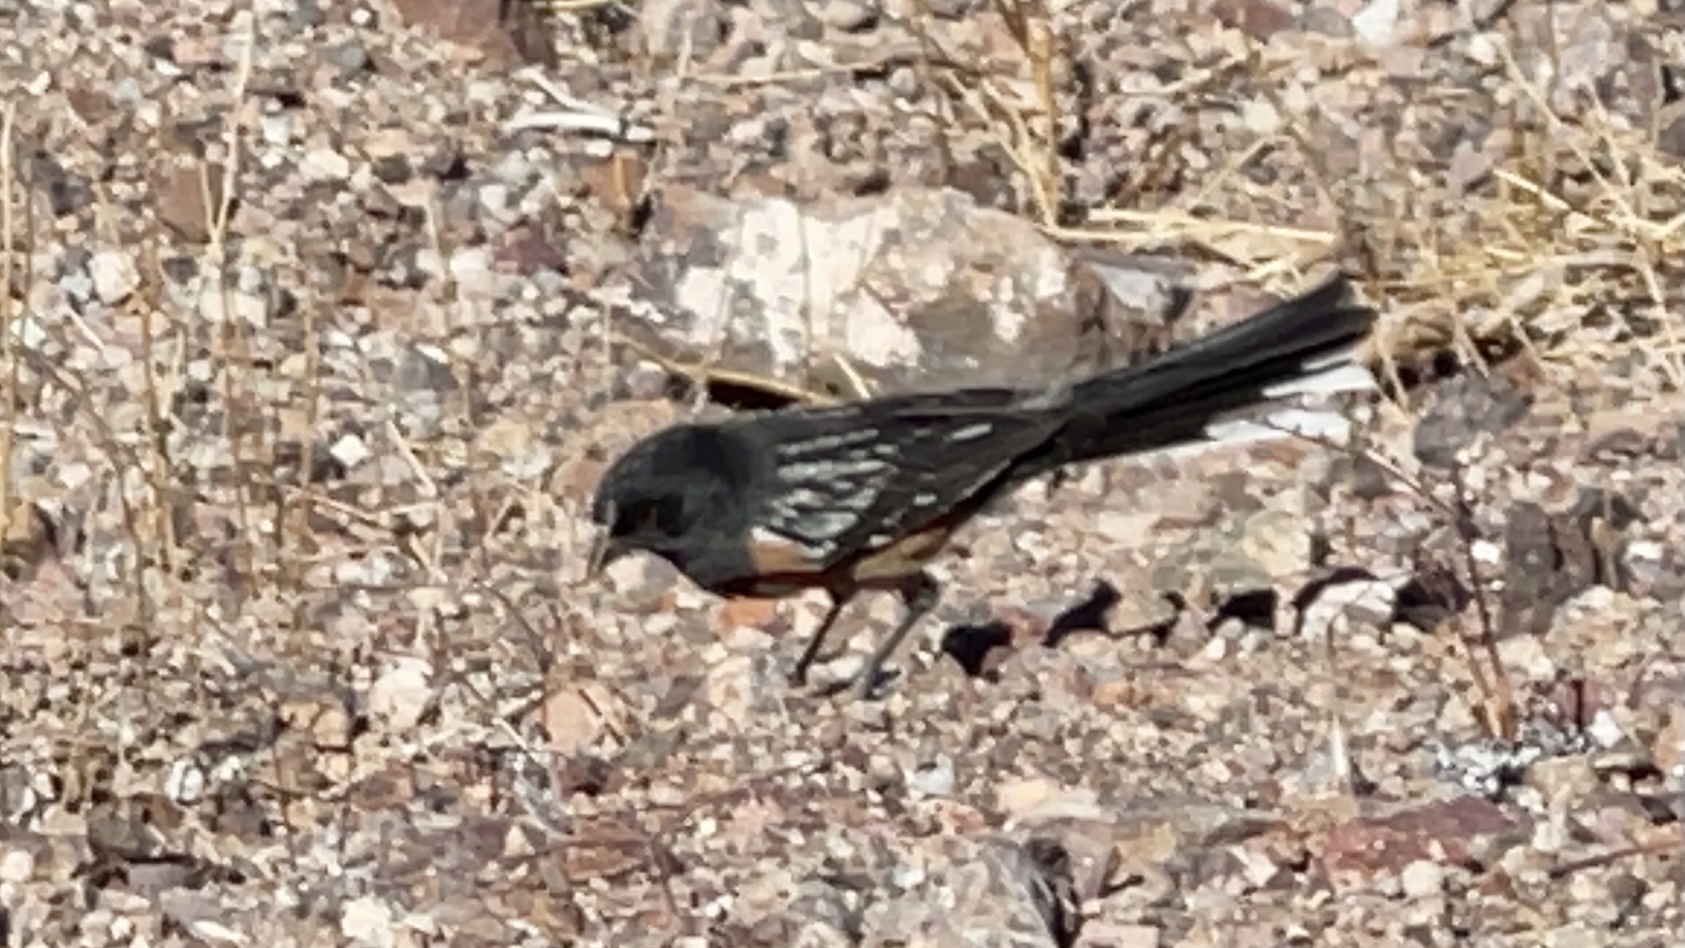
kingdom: Animalia
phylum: Chordata
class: Aves
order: Passeriformes
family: Passerellidae
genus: Pipilo
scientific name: Pipilo maculatus
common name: Spotted towhee
